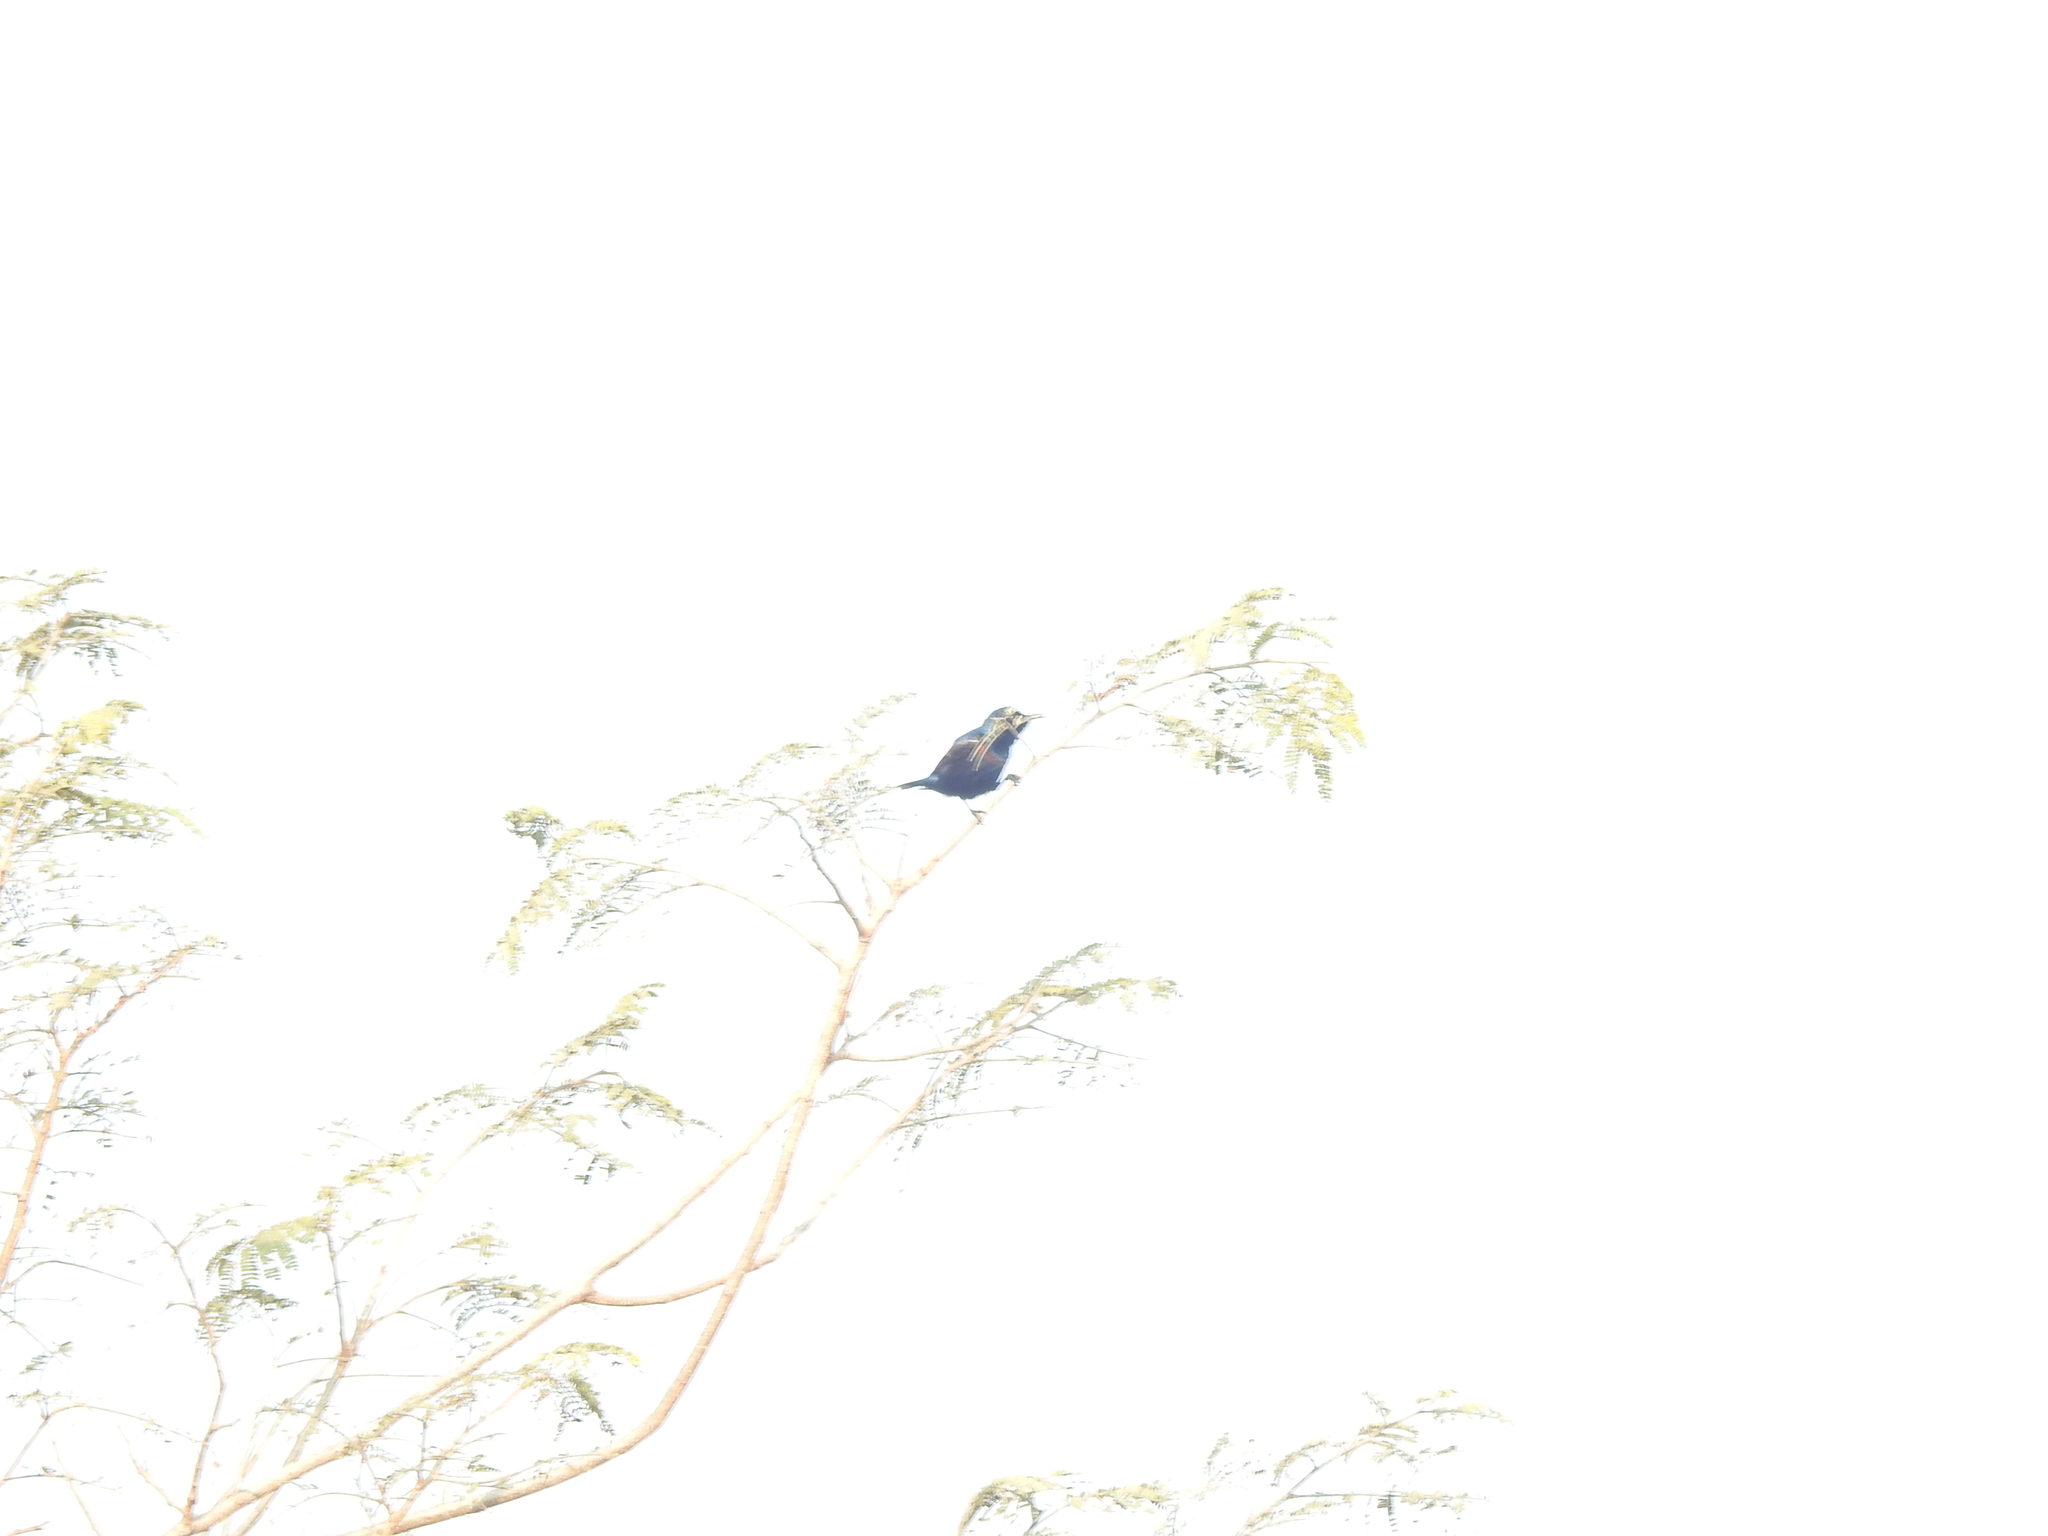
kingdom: Animalia
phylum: Chordata
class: Aves
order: Passeriformes
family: Nectariniidae
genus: Cinnyris
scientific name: Cinnyris asiaticus
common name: Purple sunbird
